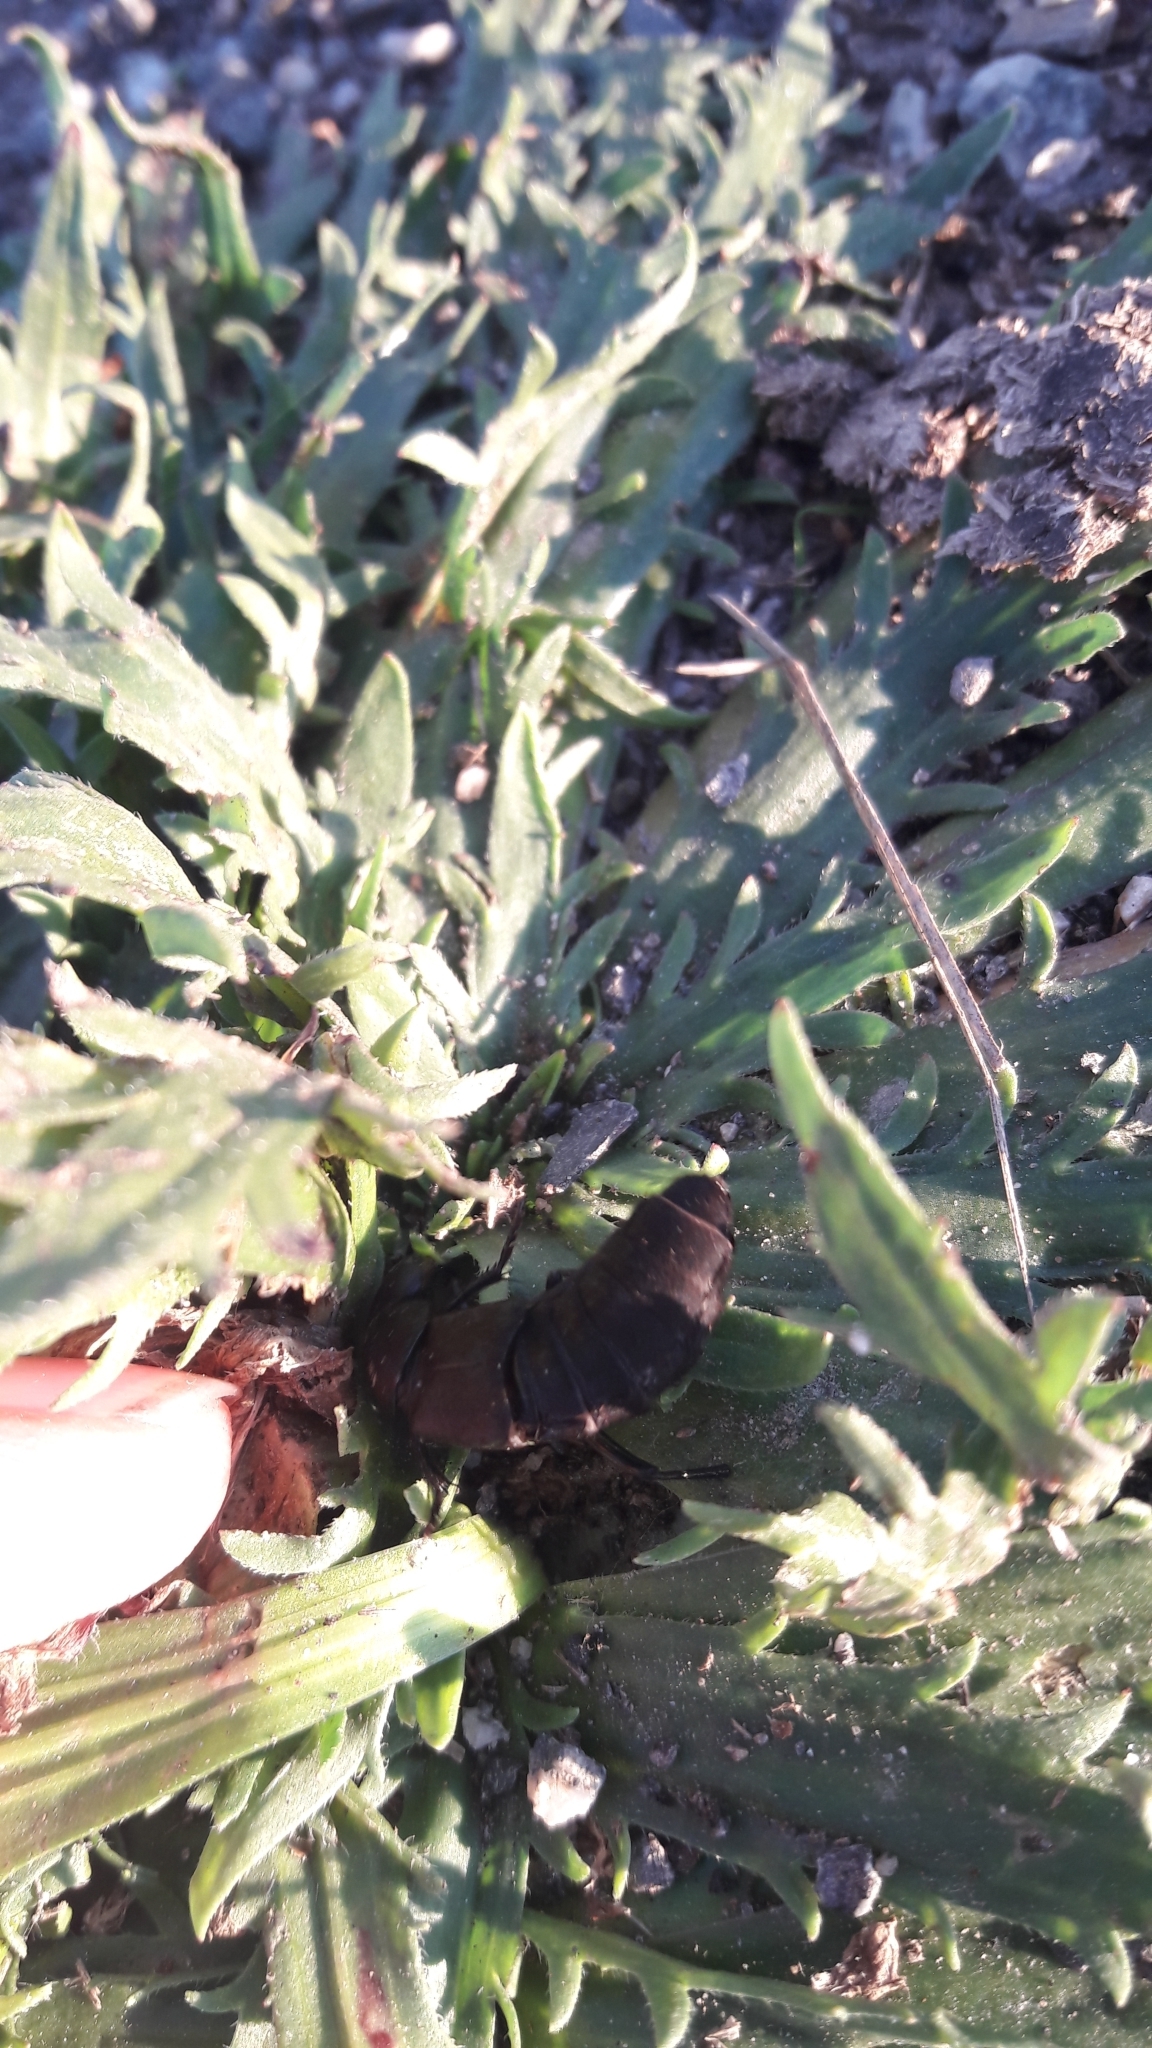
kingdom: Animalia
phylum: Arthropoda
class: Insecta
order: Coleoptera
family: Staphylinidae
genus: Ocypus
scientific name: Ocypus olens
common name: Devil's coach-horse
